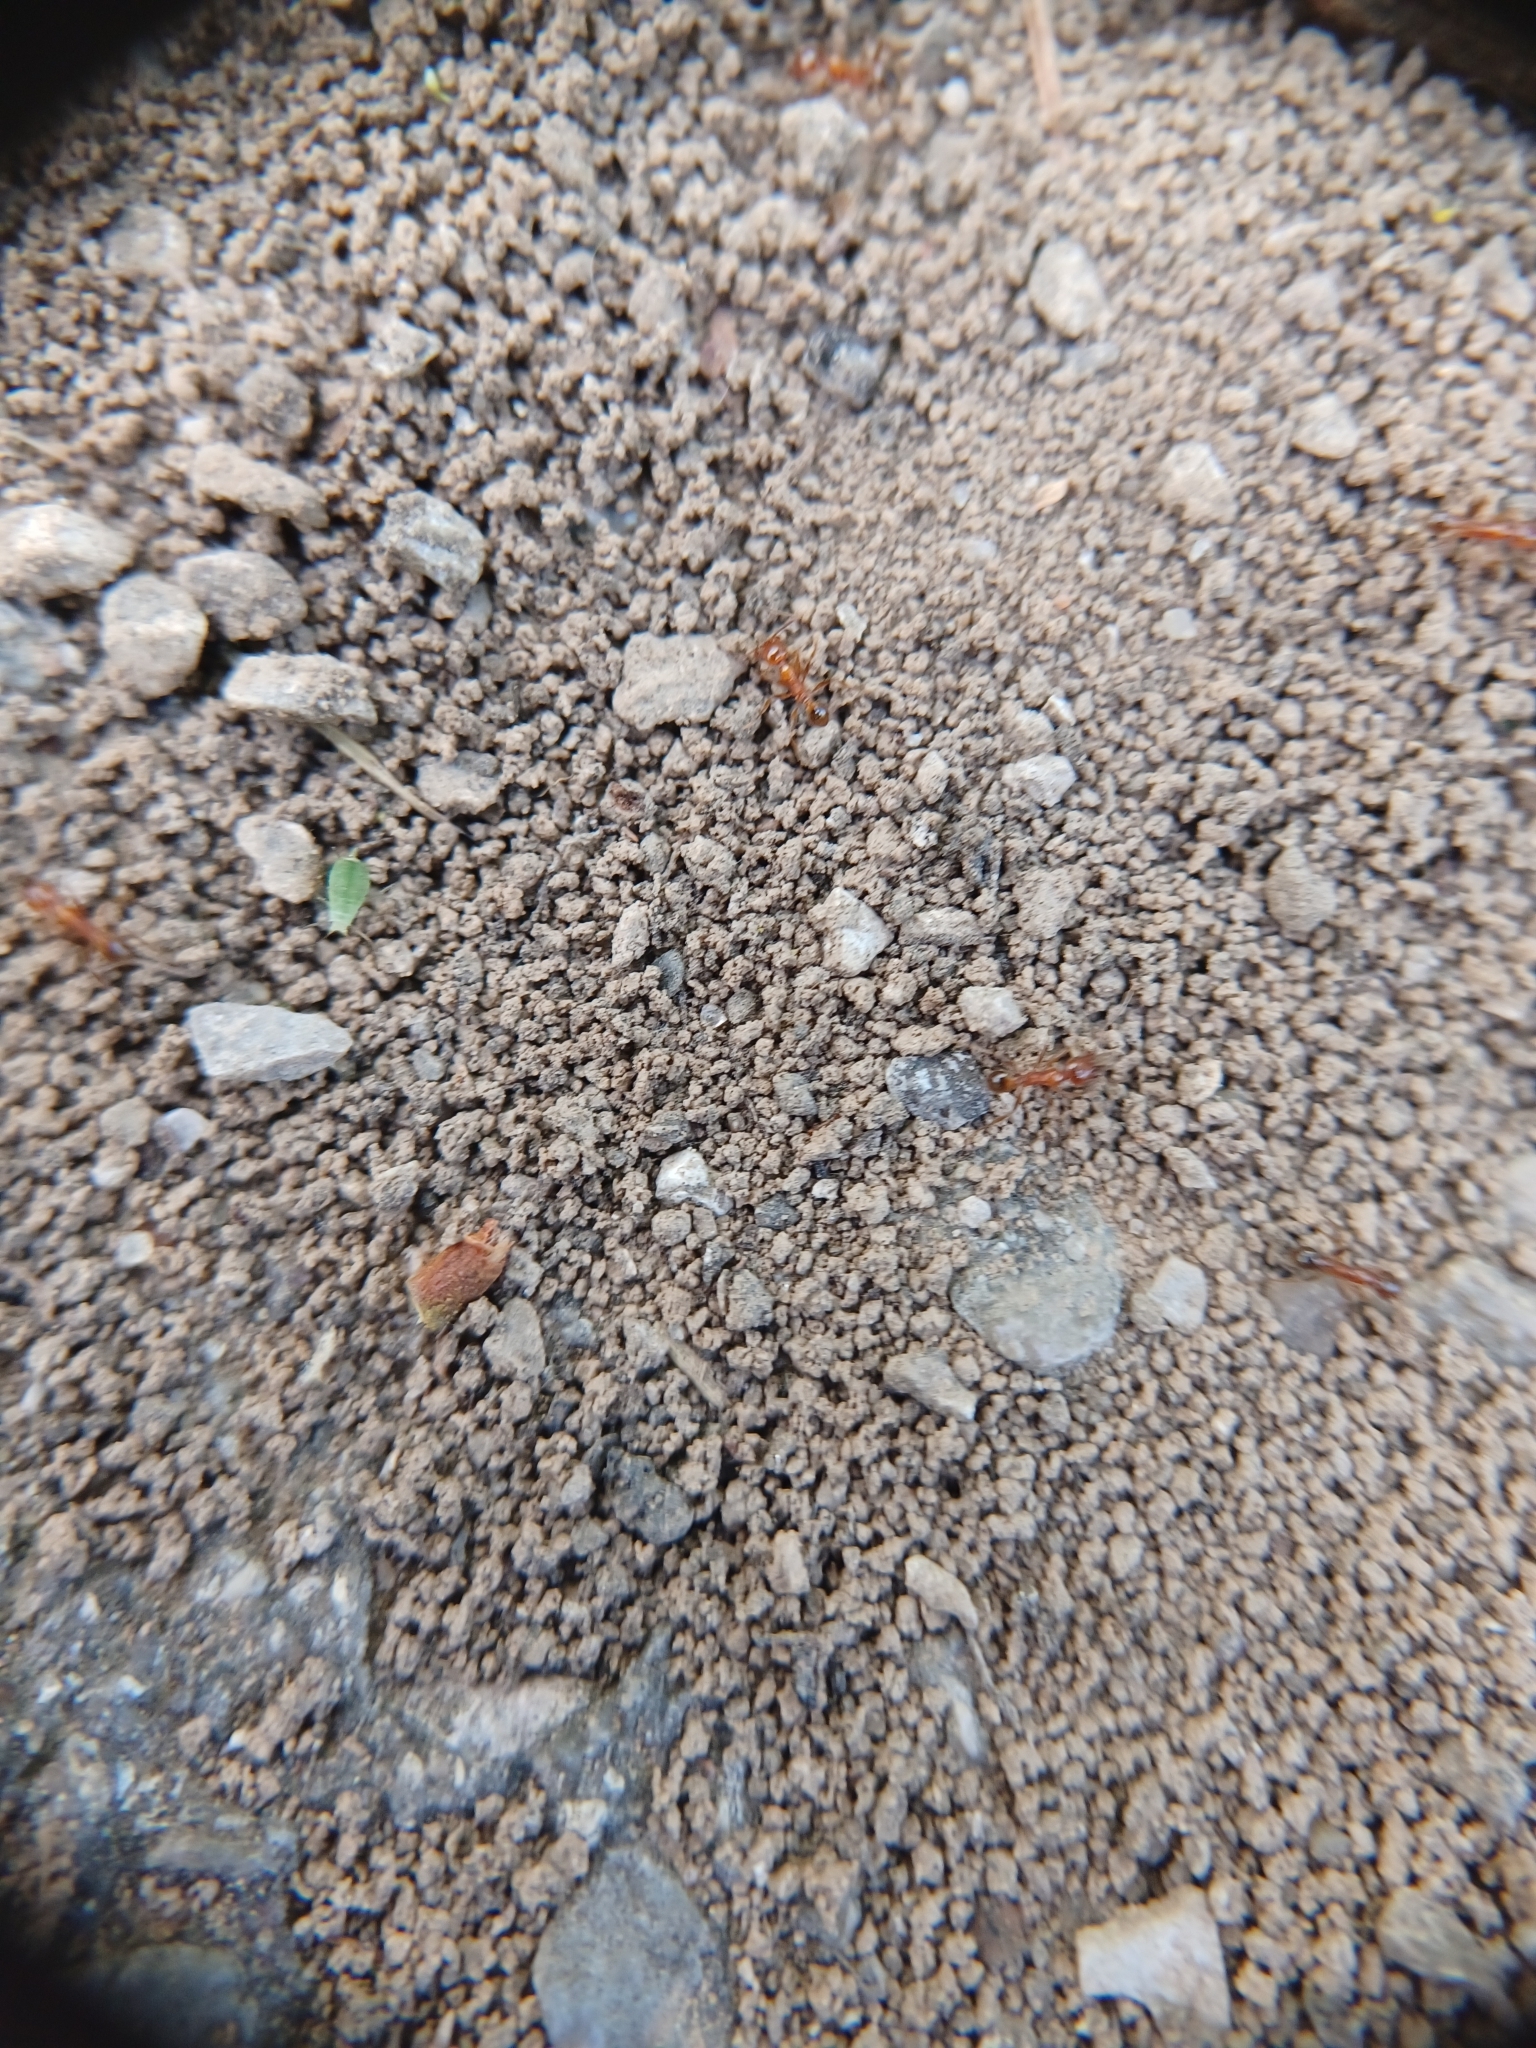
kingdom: Animalia
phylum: Arthropoda
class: Insecta
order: Hymenoptera
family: Formicidae
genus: Pheidole
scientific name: Pheidole dentata
